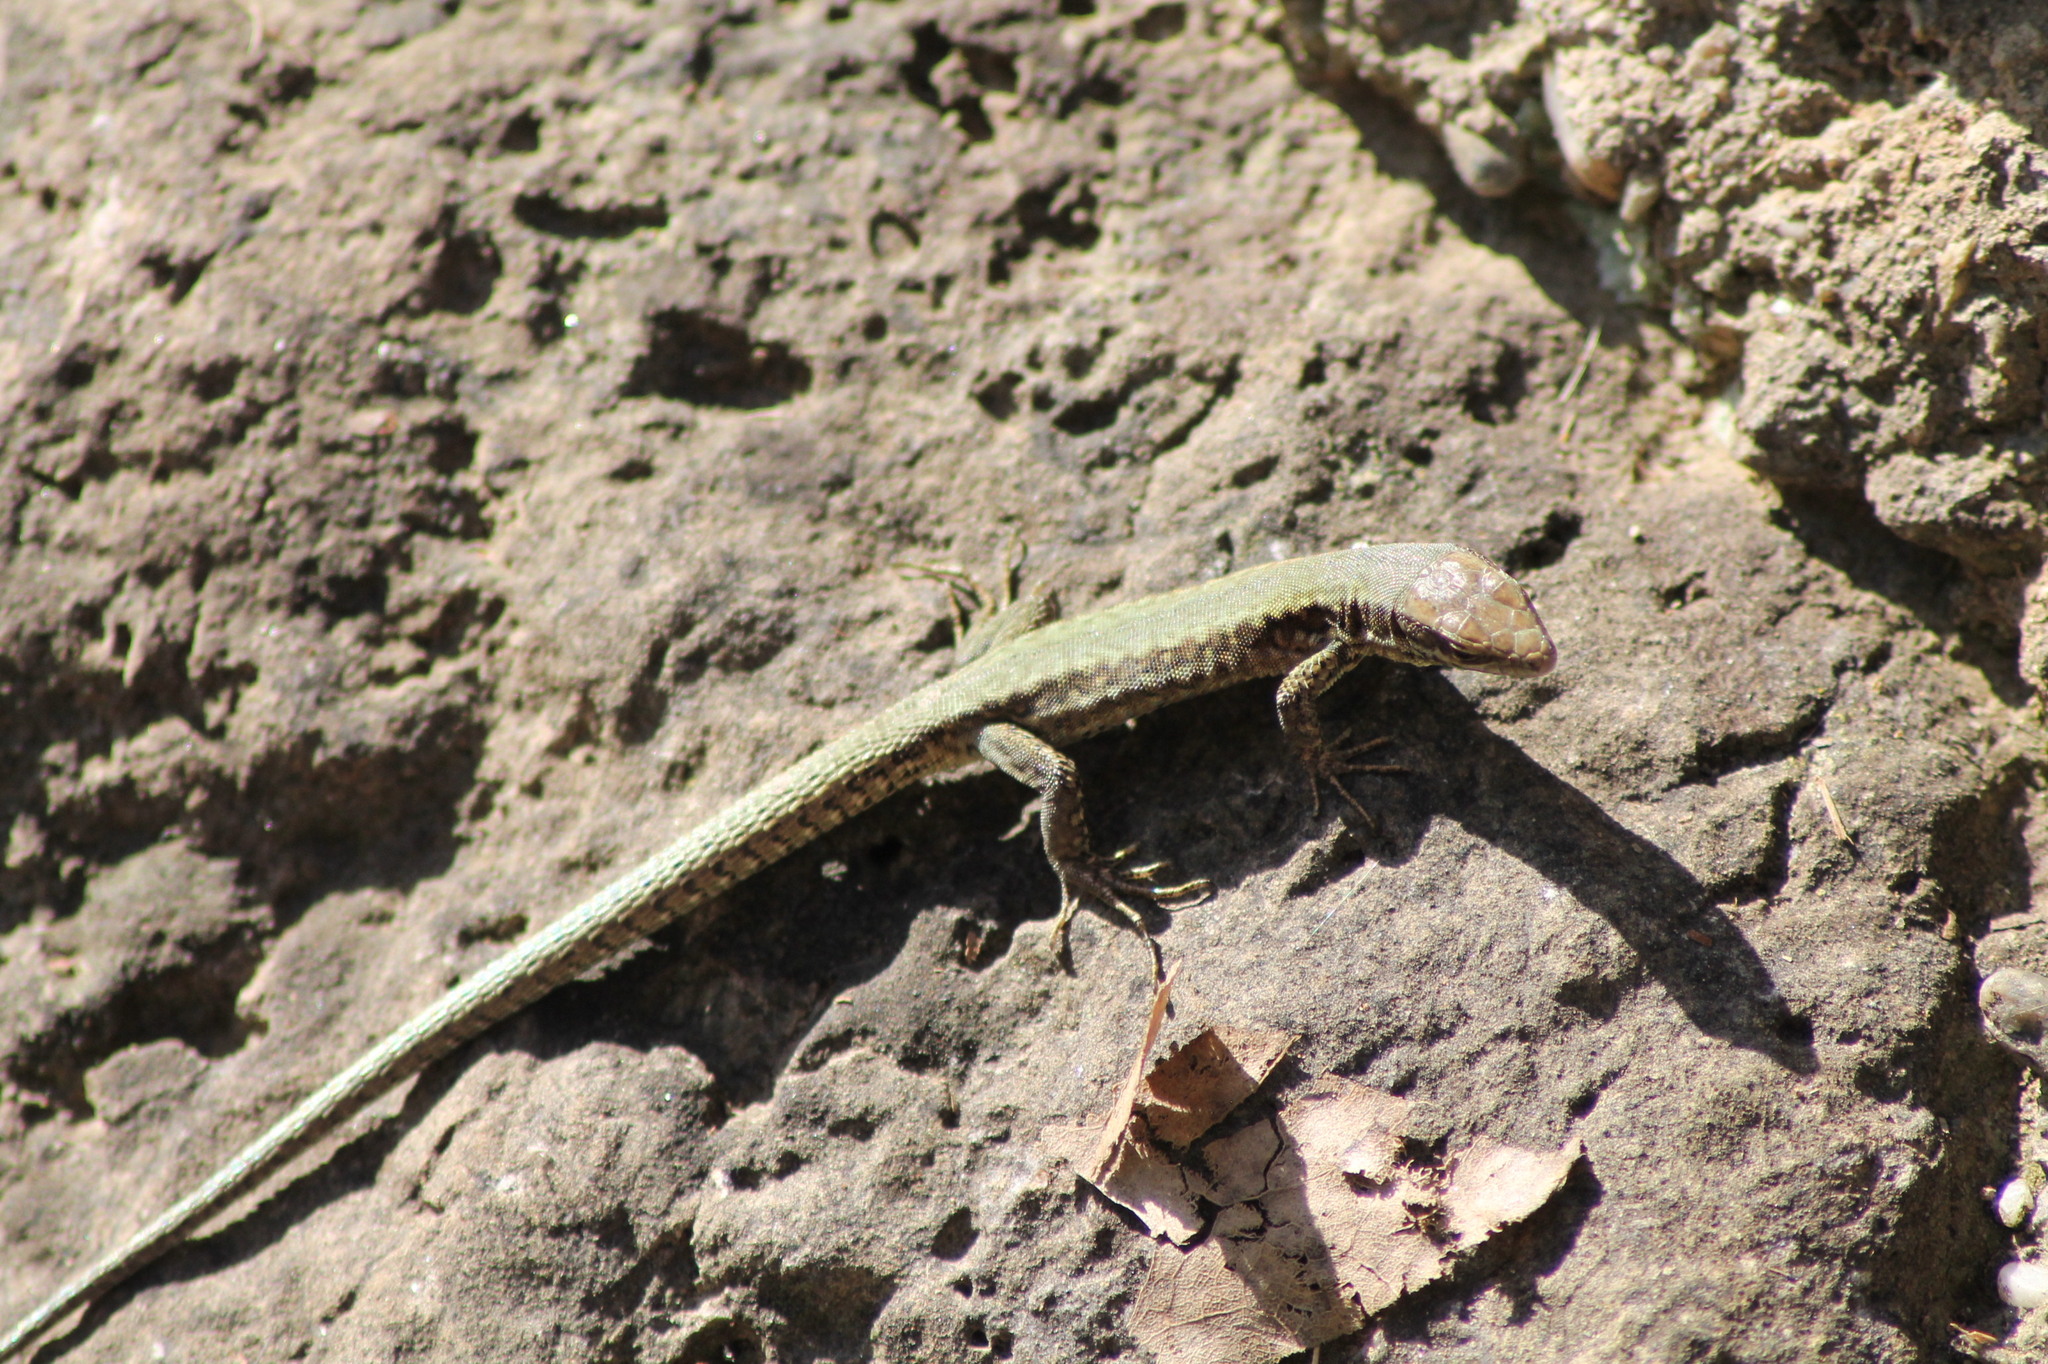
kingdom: Animalia
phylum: Chordata
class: Squamata
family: Lacertidae
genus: Podarcis
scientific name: Podarcis muralis
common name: Common wall lizard
